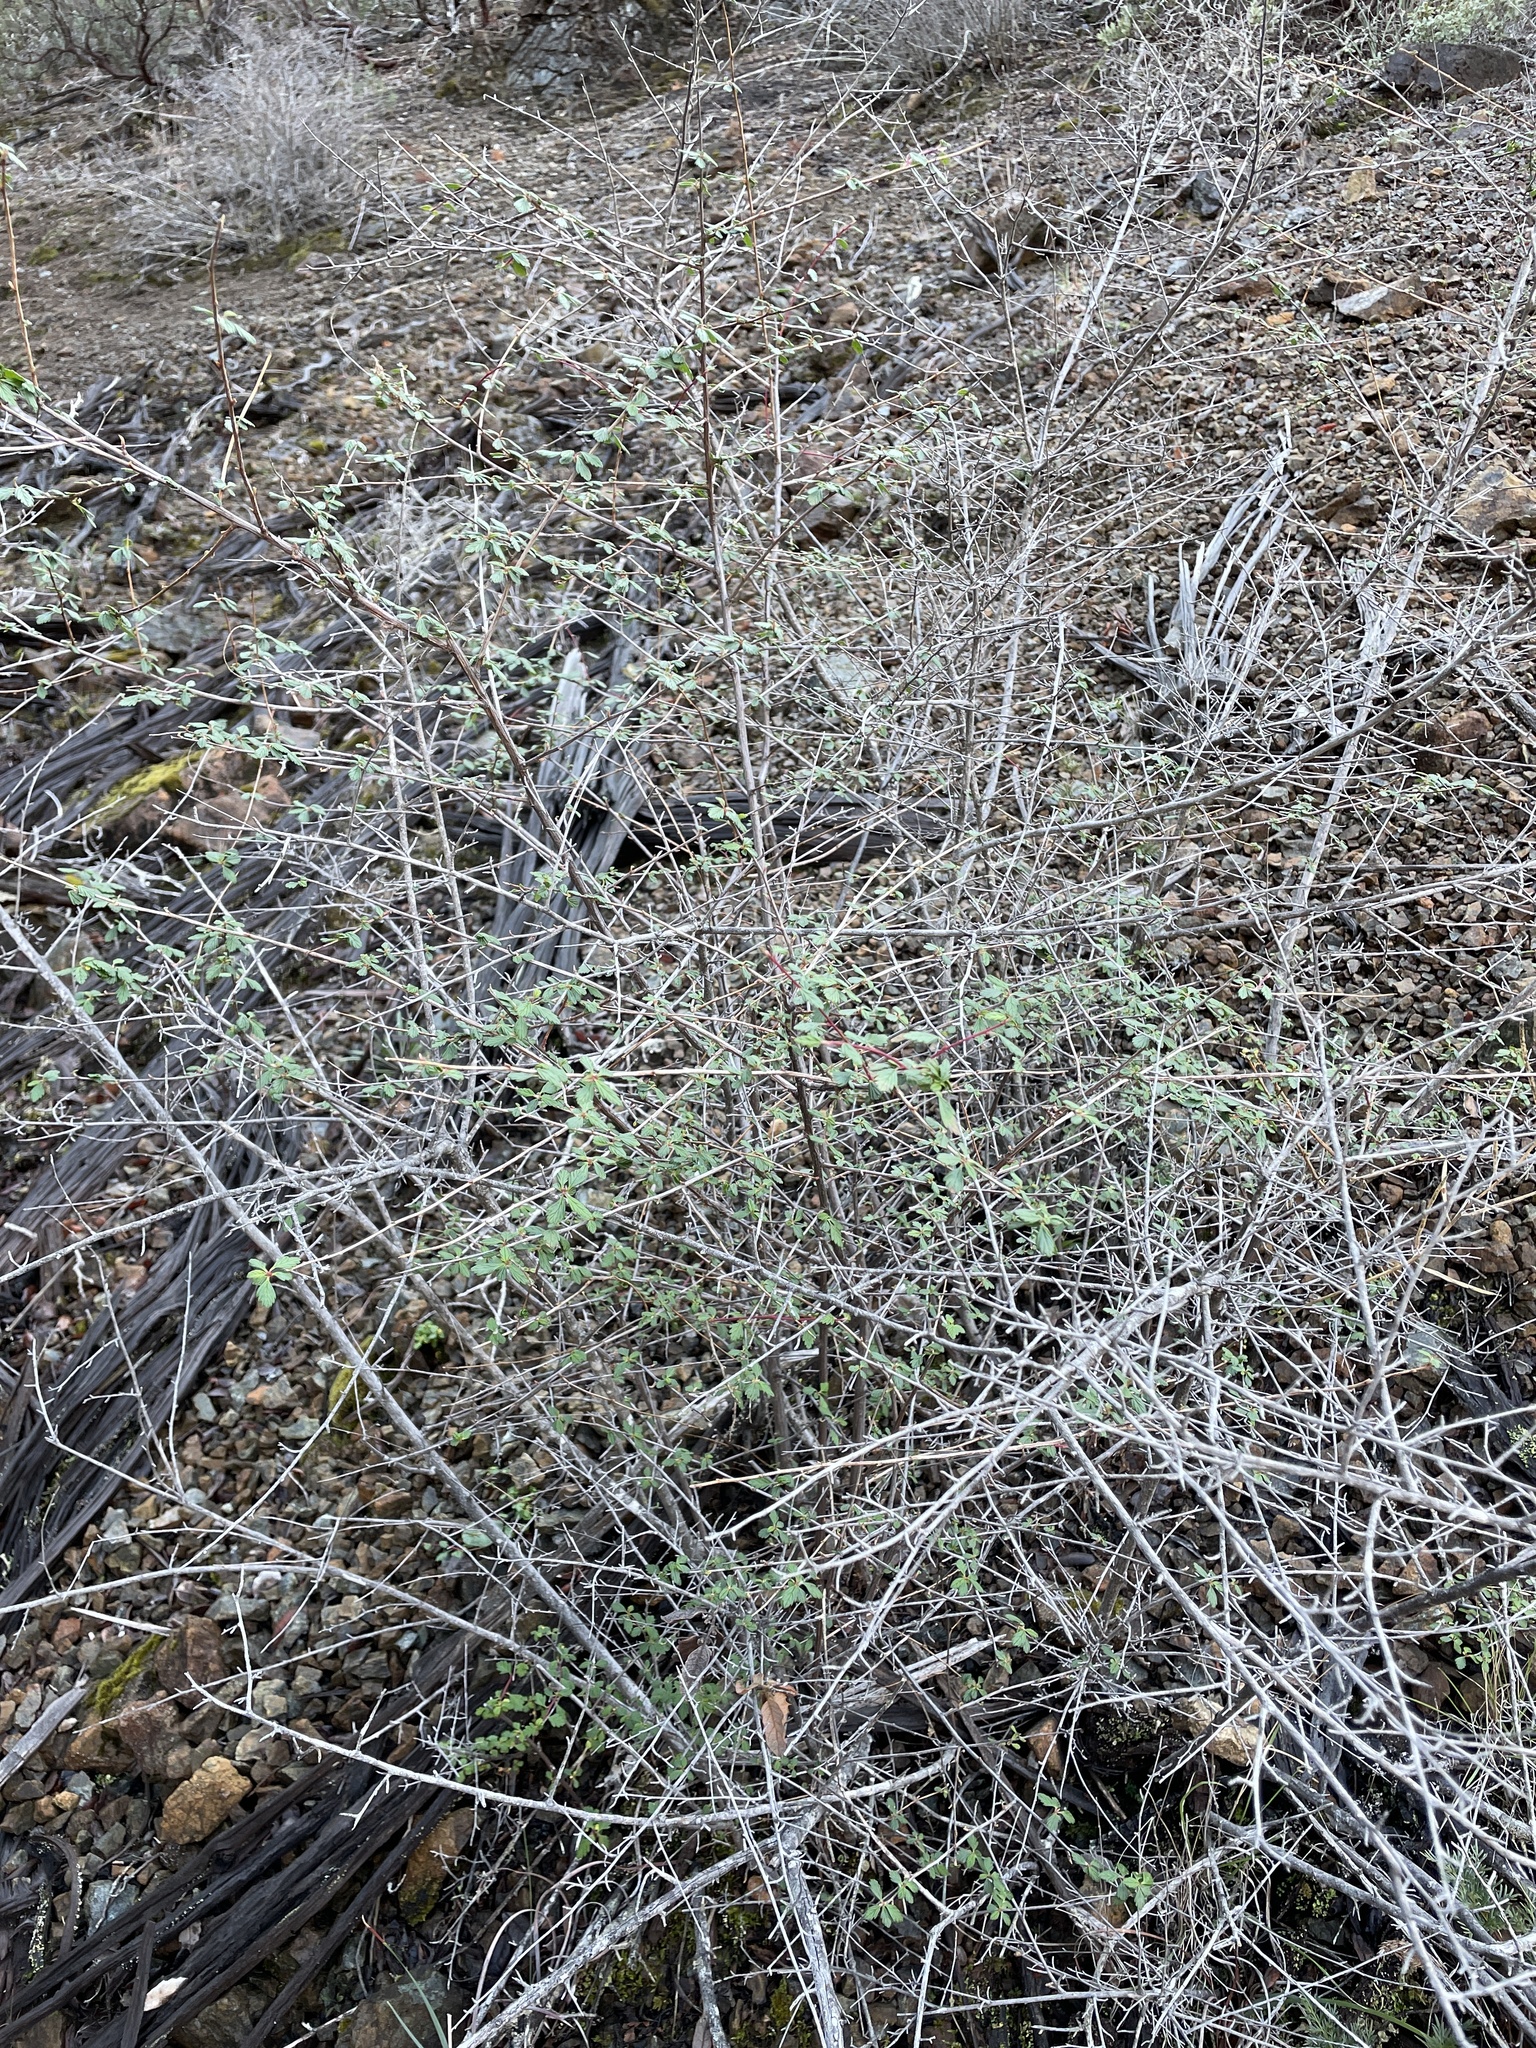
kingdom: Plantae
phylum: Tracheophyta
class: Magnoliopsida
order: Rosales
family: Rosaceae
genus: Holodiscus
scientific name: Holodiscus discolor
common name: Oceanspray
